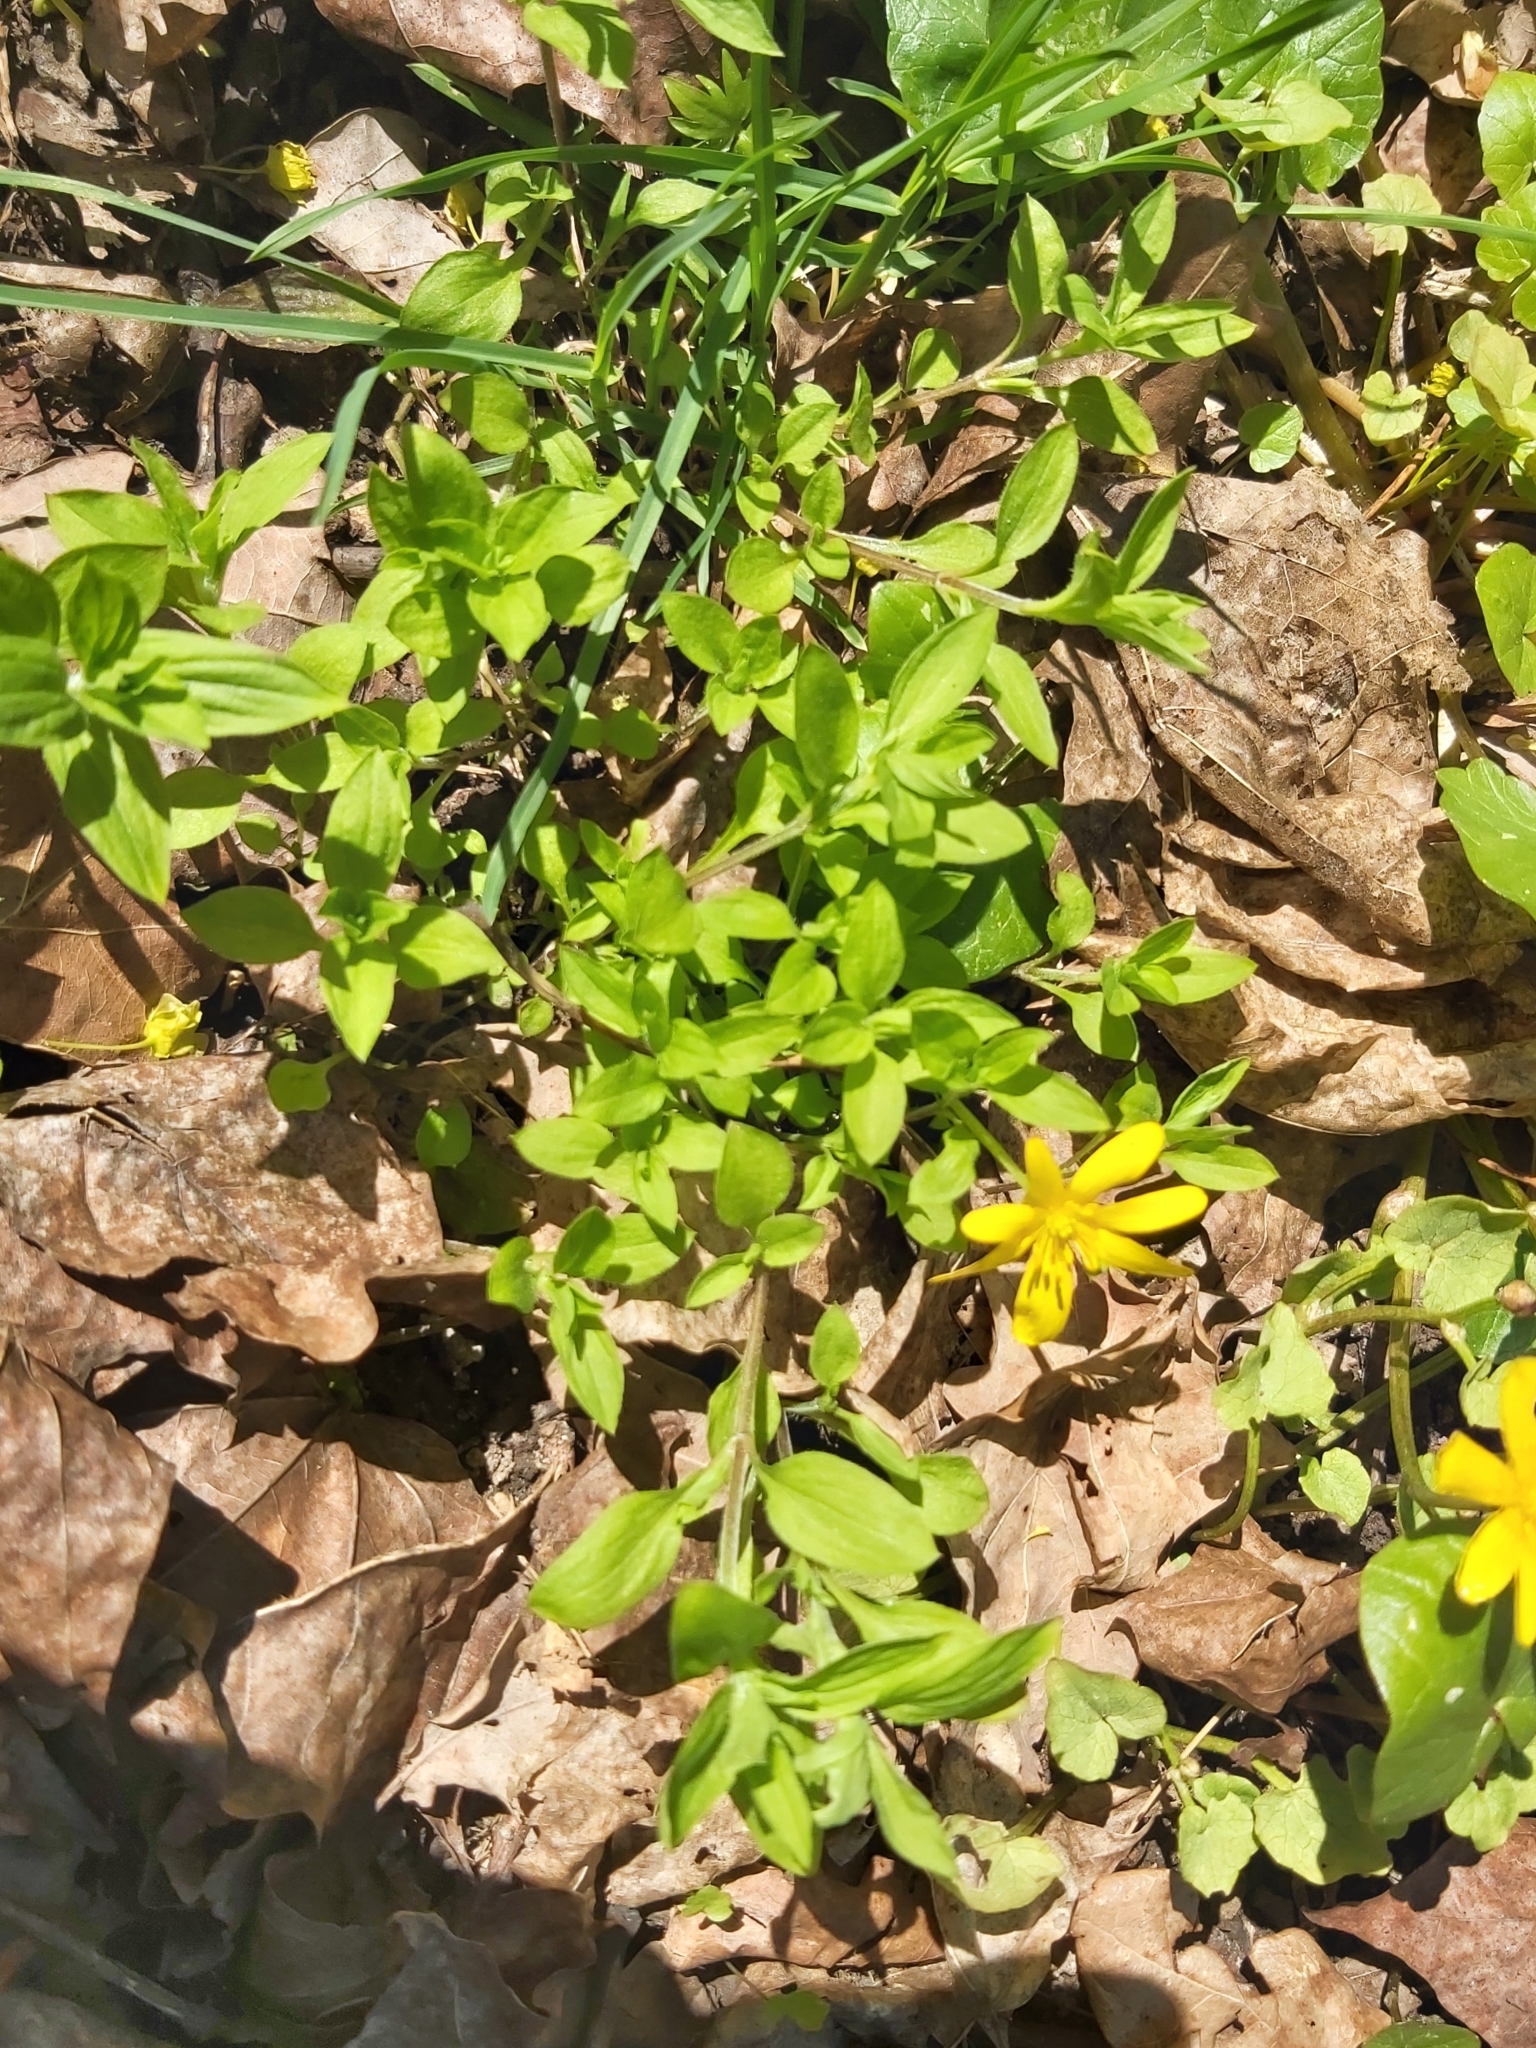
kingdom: Plantae
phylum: Tracheophyta
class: Magnoliopsida
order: Caryophyllales
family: Caryophyllaceae
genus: Moehringia
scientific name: Moehringia trinervia
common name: Three-nerved sandwort
